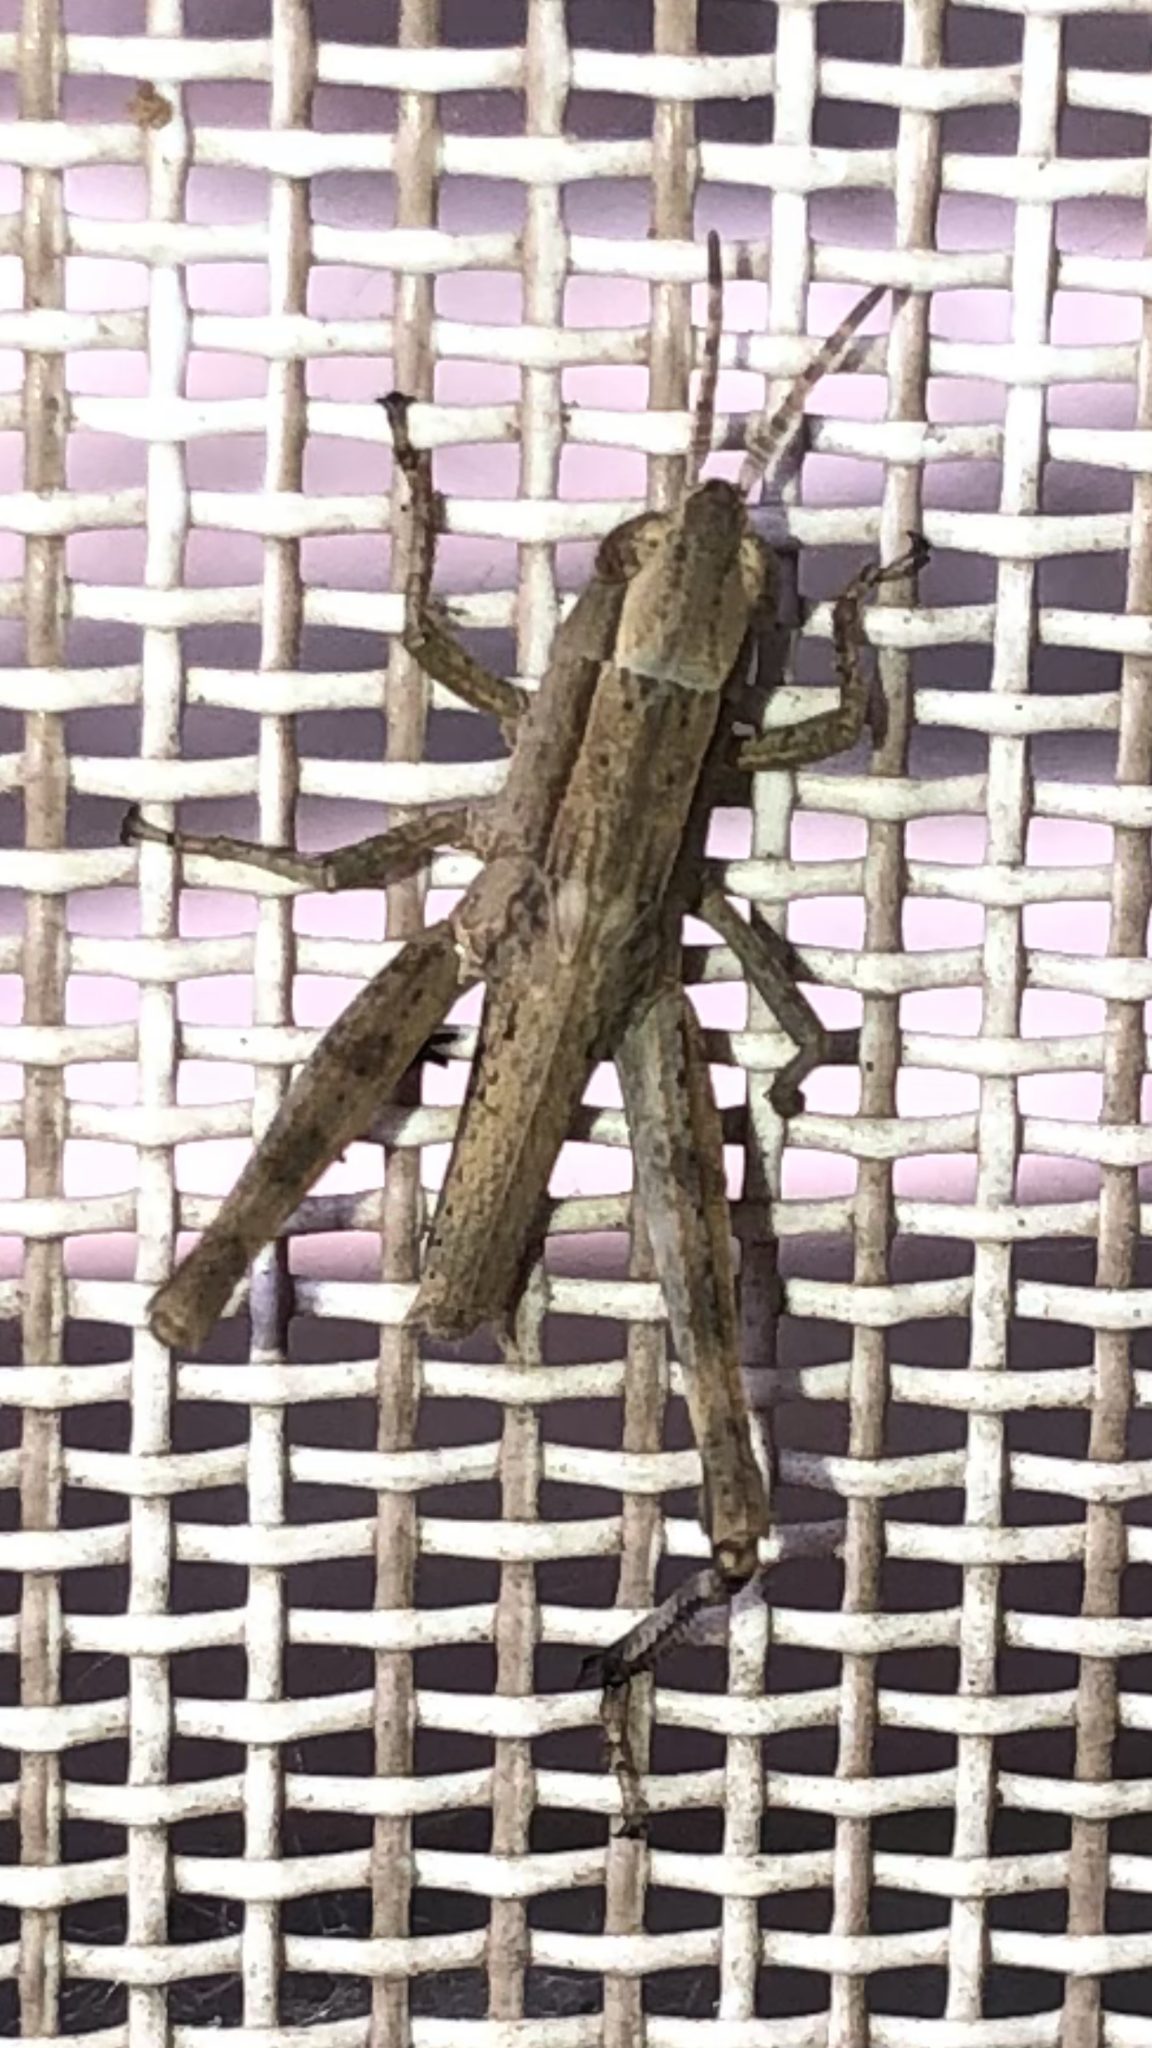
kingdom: Animalia
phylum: Arthropoda
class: Insecta
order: Orthoptera
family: Acrididae
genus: Dichromorpha
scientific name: Dichromorpha viridis
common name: Short-winged green grasshopper
